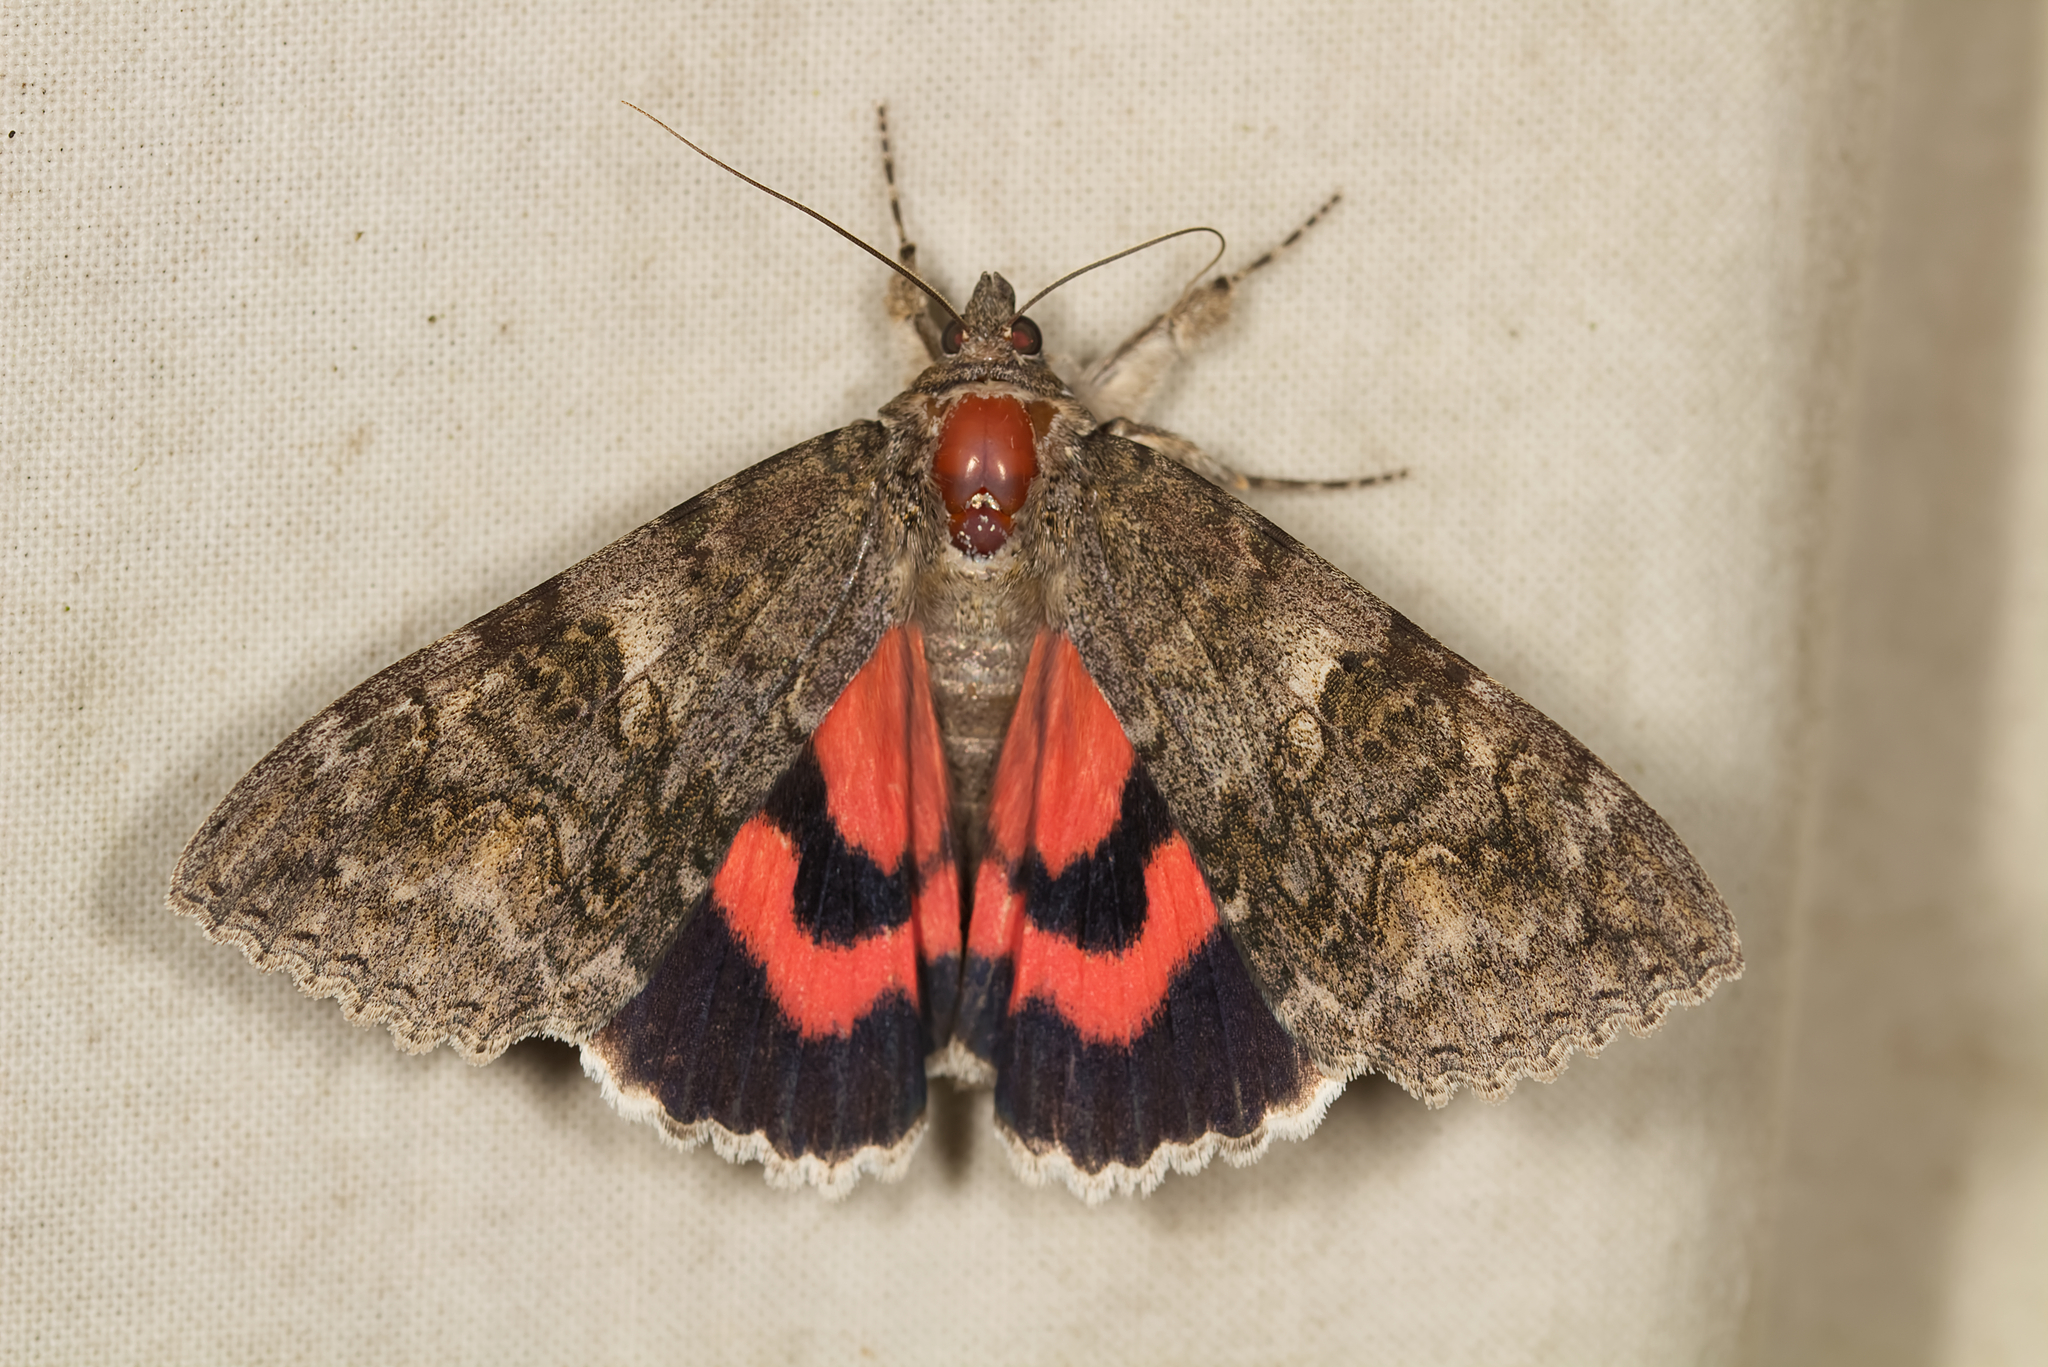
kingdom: Animalia
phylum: Arthropoda
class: Insecta
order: Lepidoptera
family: Erebidae
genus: Catocala
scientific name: Catocala nupta
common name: Red underwing
